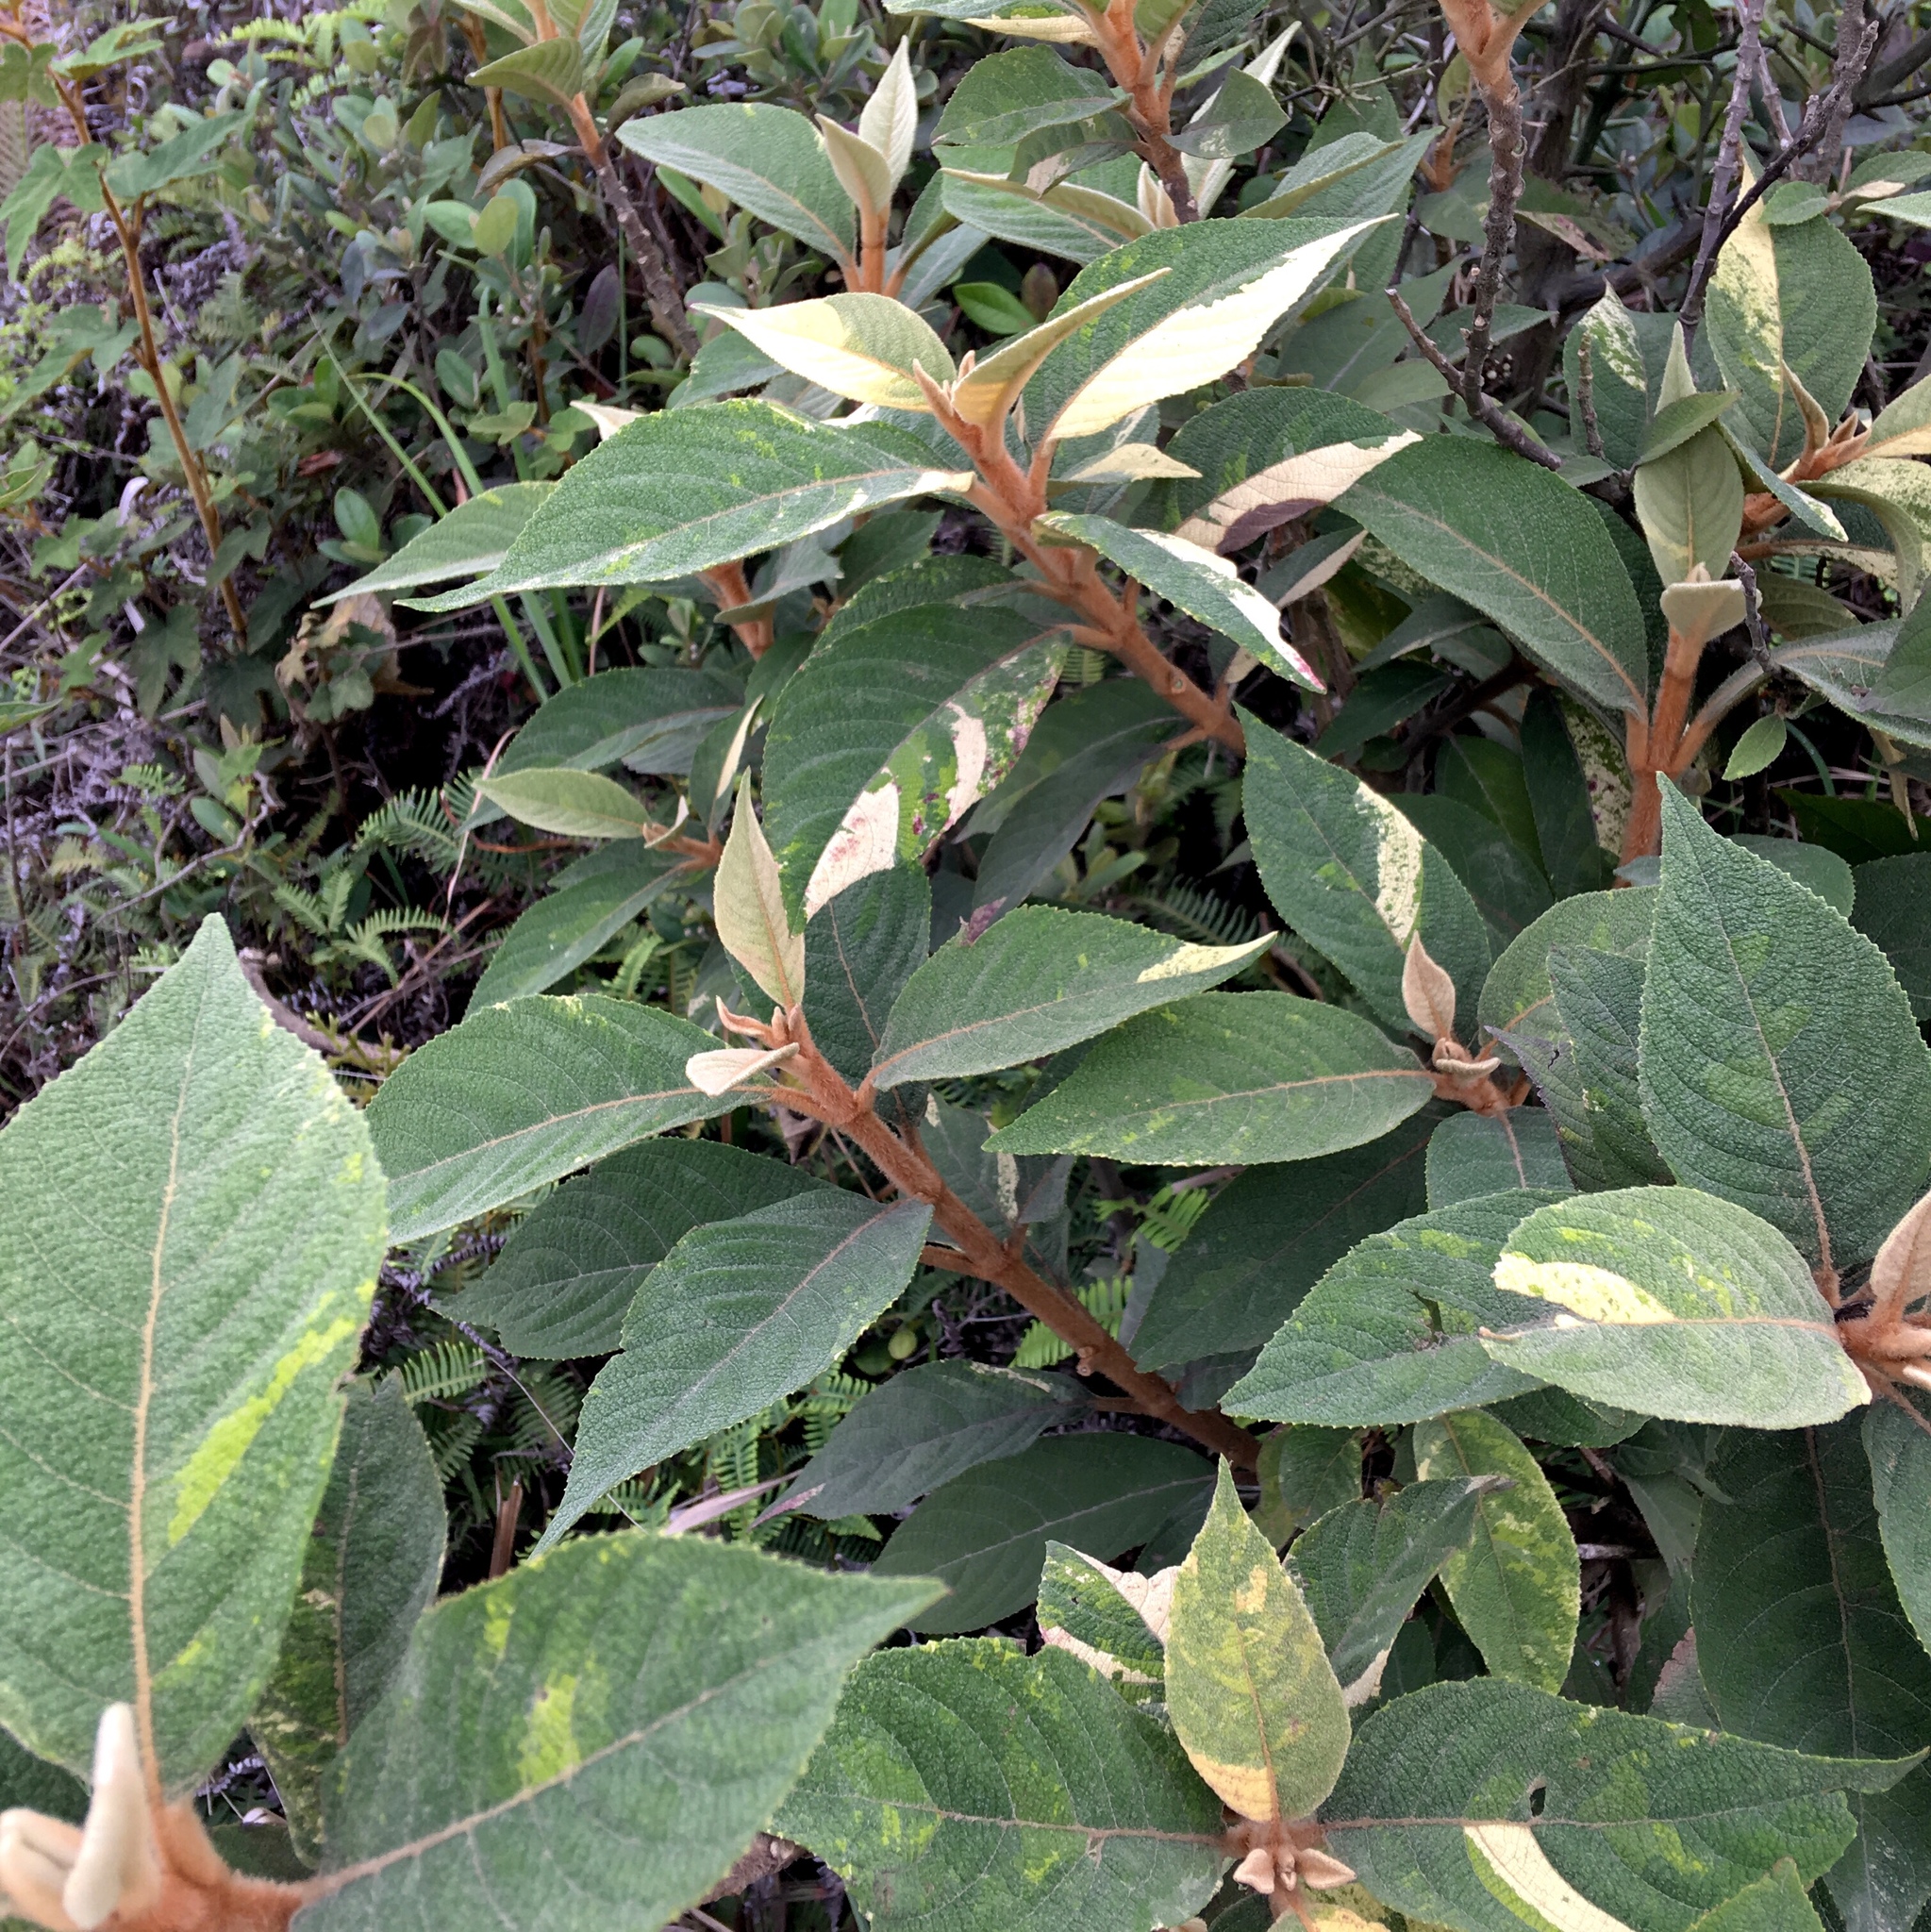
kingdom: Plantae
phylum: Tracheophyta
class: Magnoliopsida
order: Lamiales
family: Lamiaceae
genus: Callicarpa
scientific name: Callicarpa kochiana
